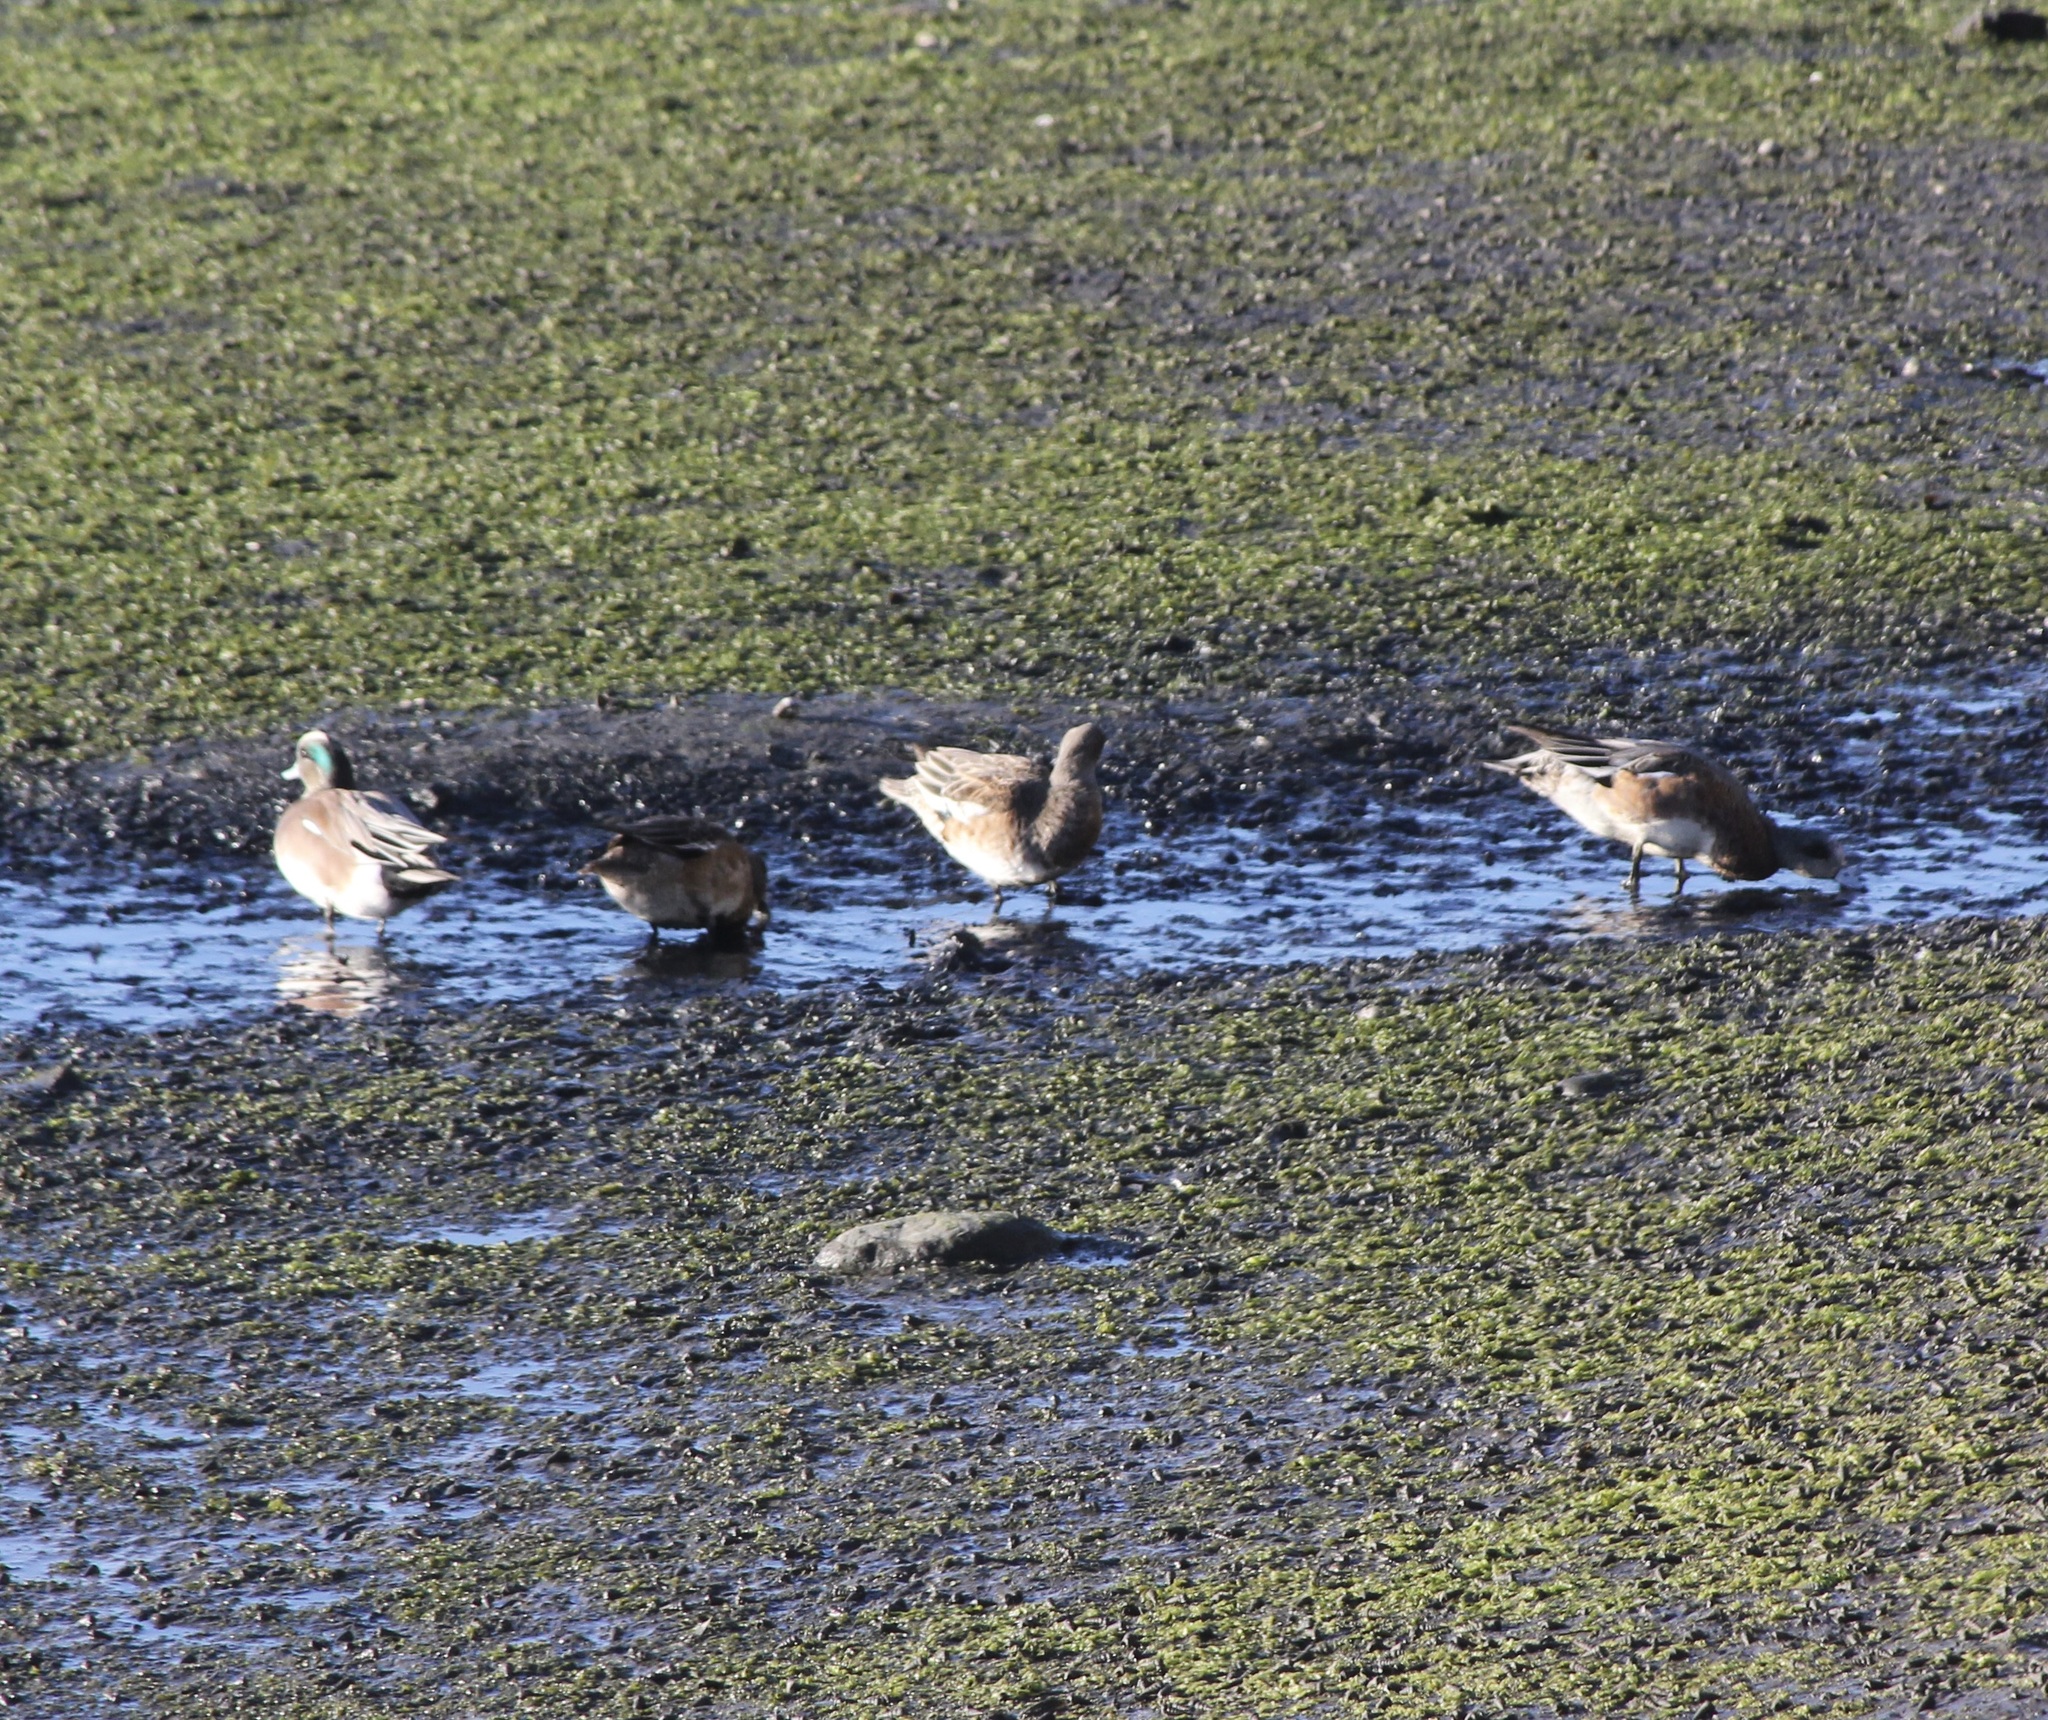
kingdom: Animalia
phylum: Chordata
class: Aves
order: Anseriformes
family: Anatidae
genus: Mareca
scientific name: Mareca americana
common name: American wigeon
